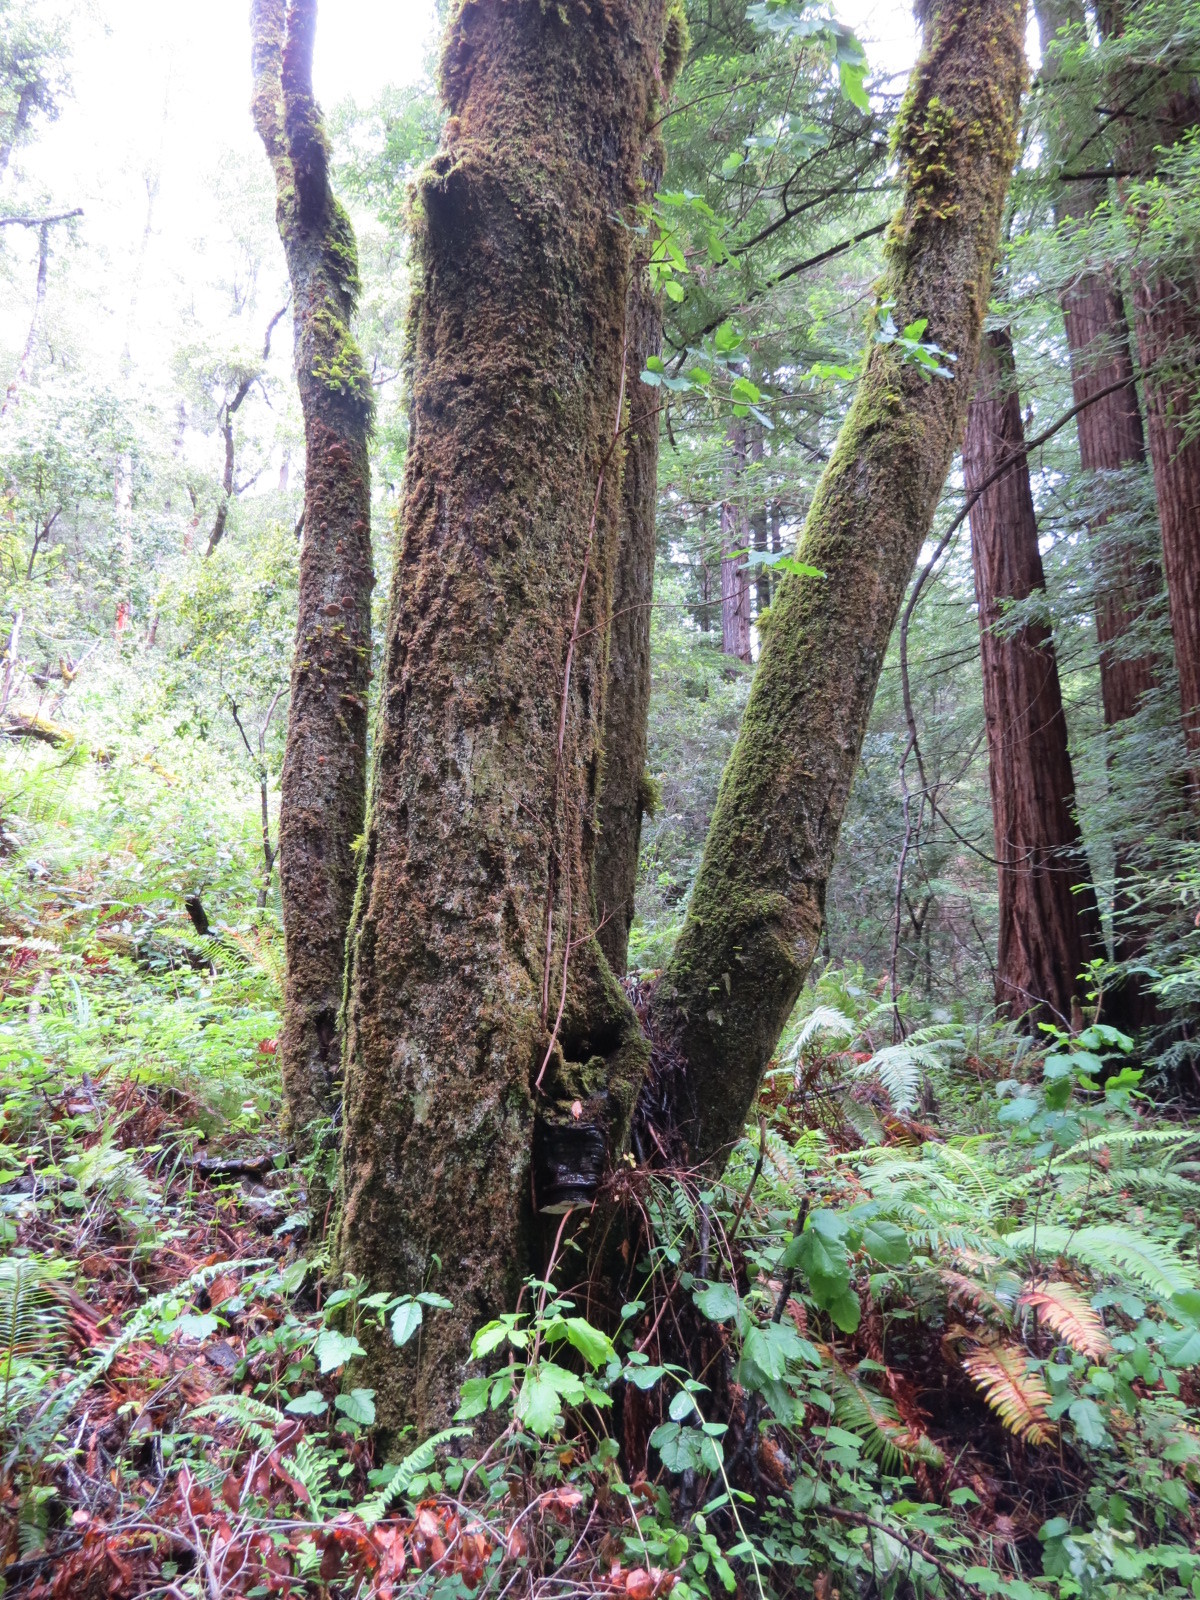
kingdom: Fungi
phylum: Basidiomycota
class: Agaricomycetes
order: Polyporales
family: Polyporaceae
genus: Ganoderma
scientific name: Ganoderma brownii
